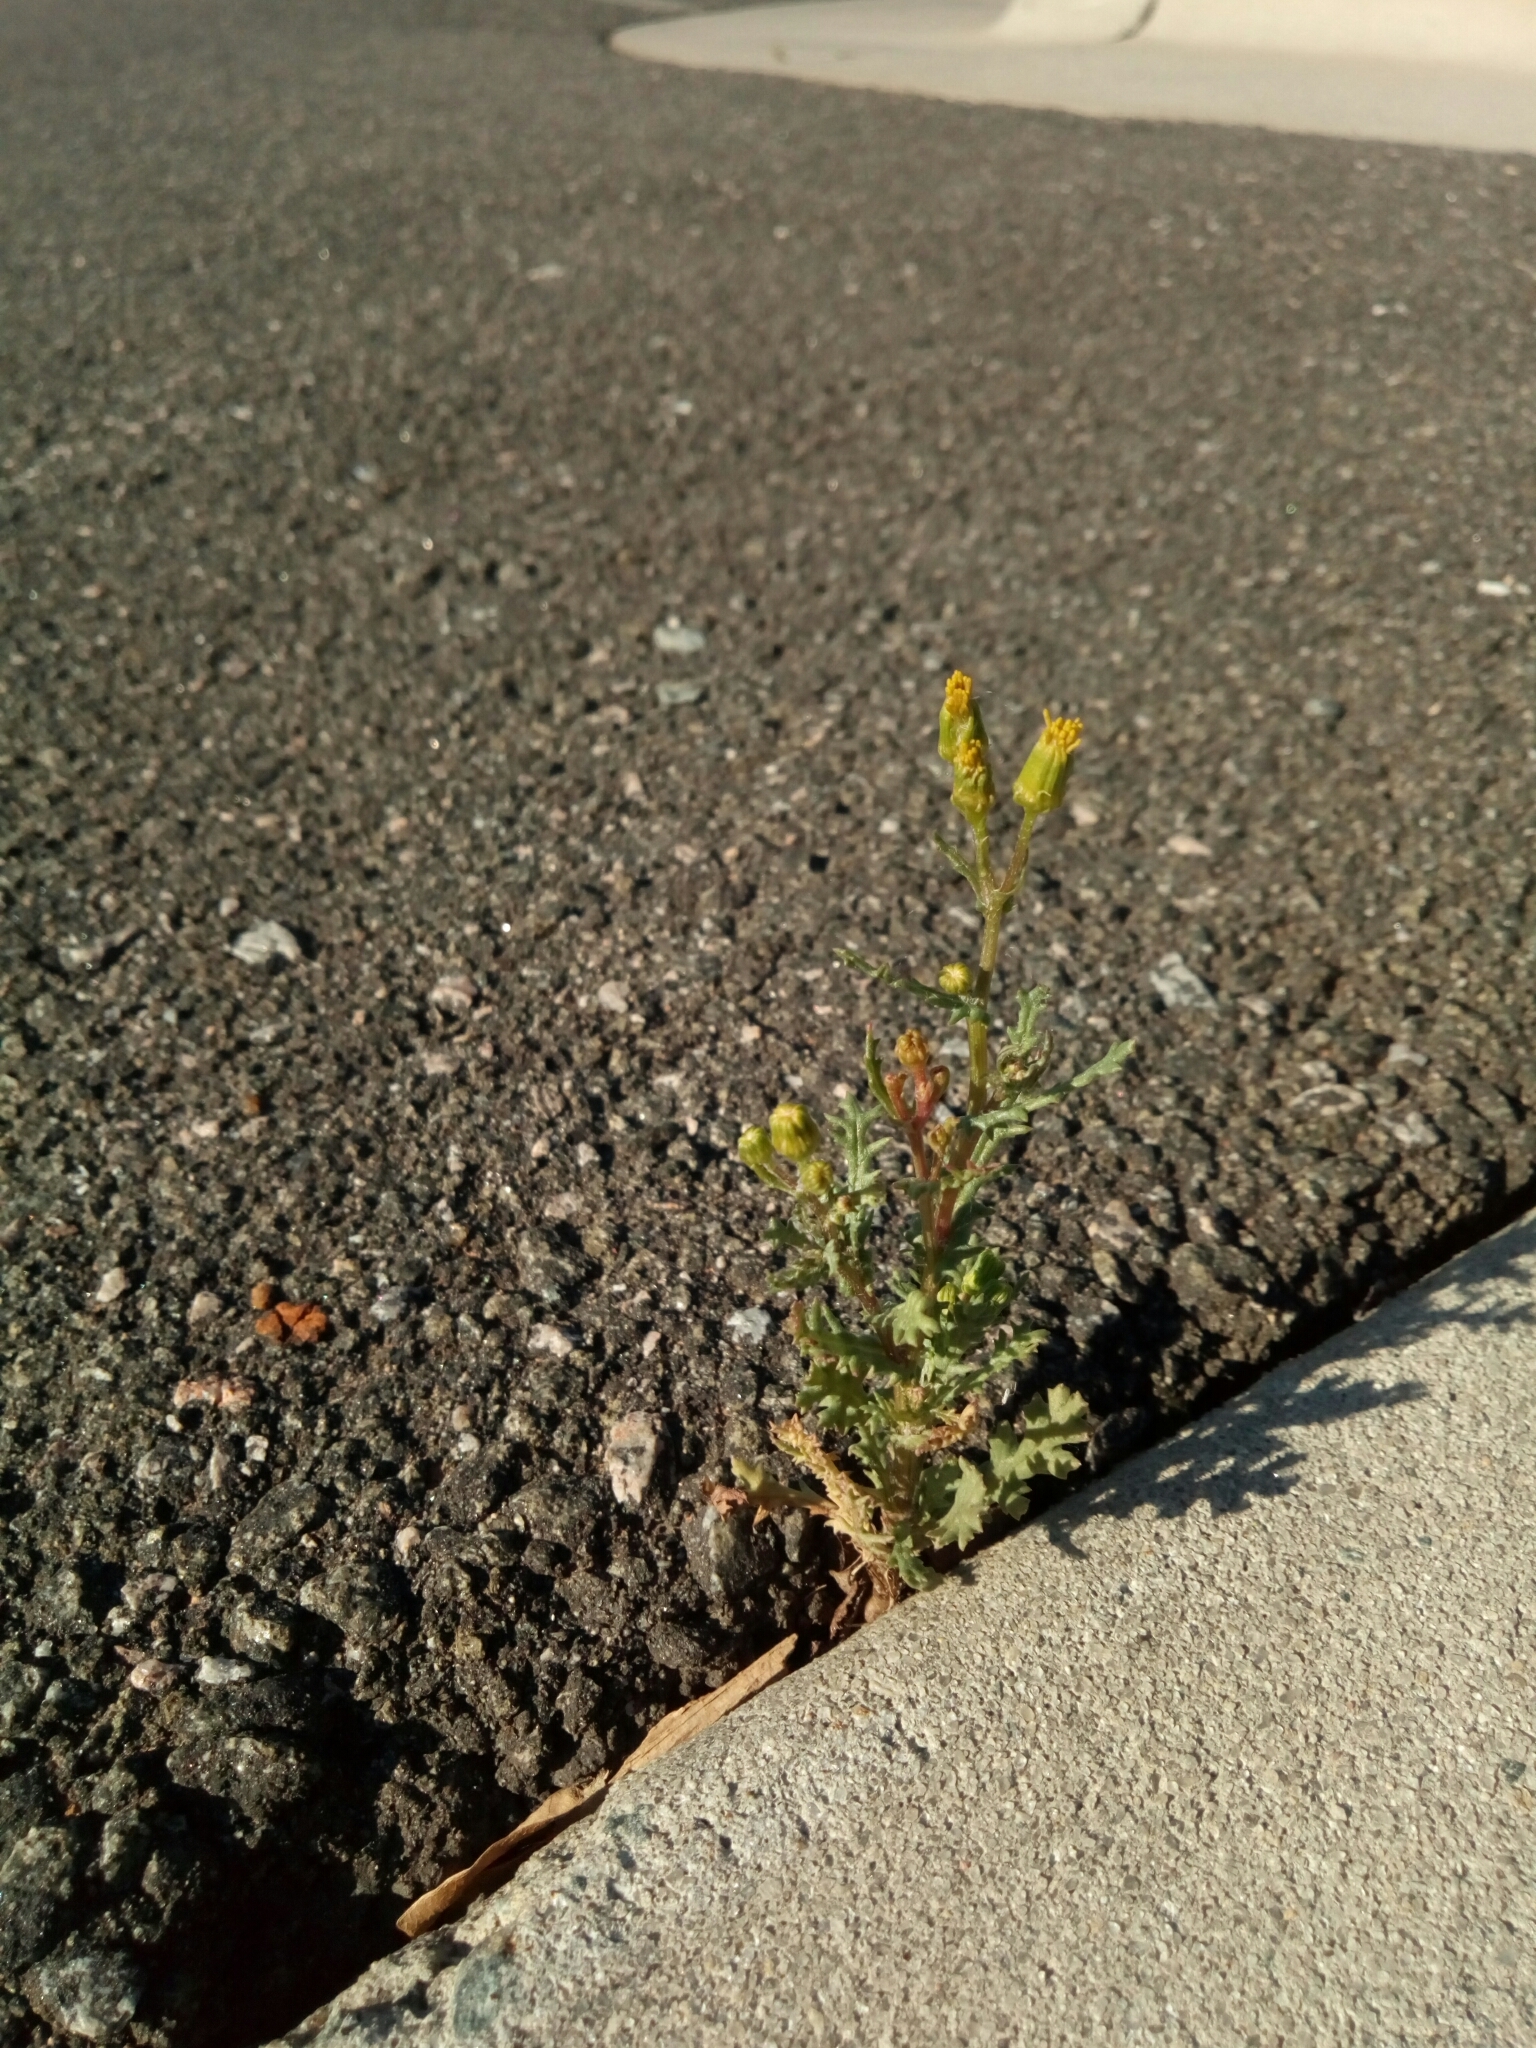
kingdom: Plantae
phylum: Tracheophyta
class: Magnoliopsida
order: Asterales
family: Asteraceae
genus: Senecio
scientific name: Senecio vulgaris
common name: Old-man-in-the-spring
